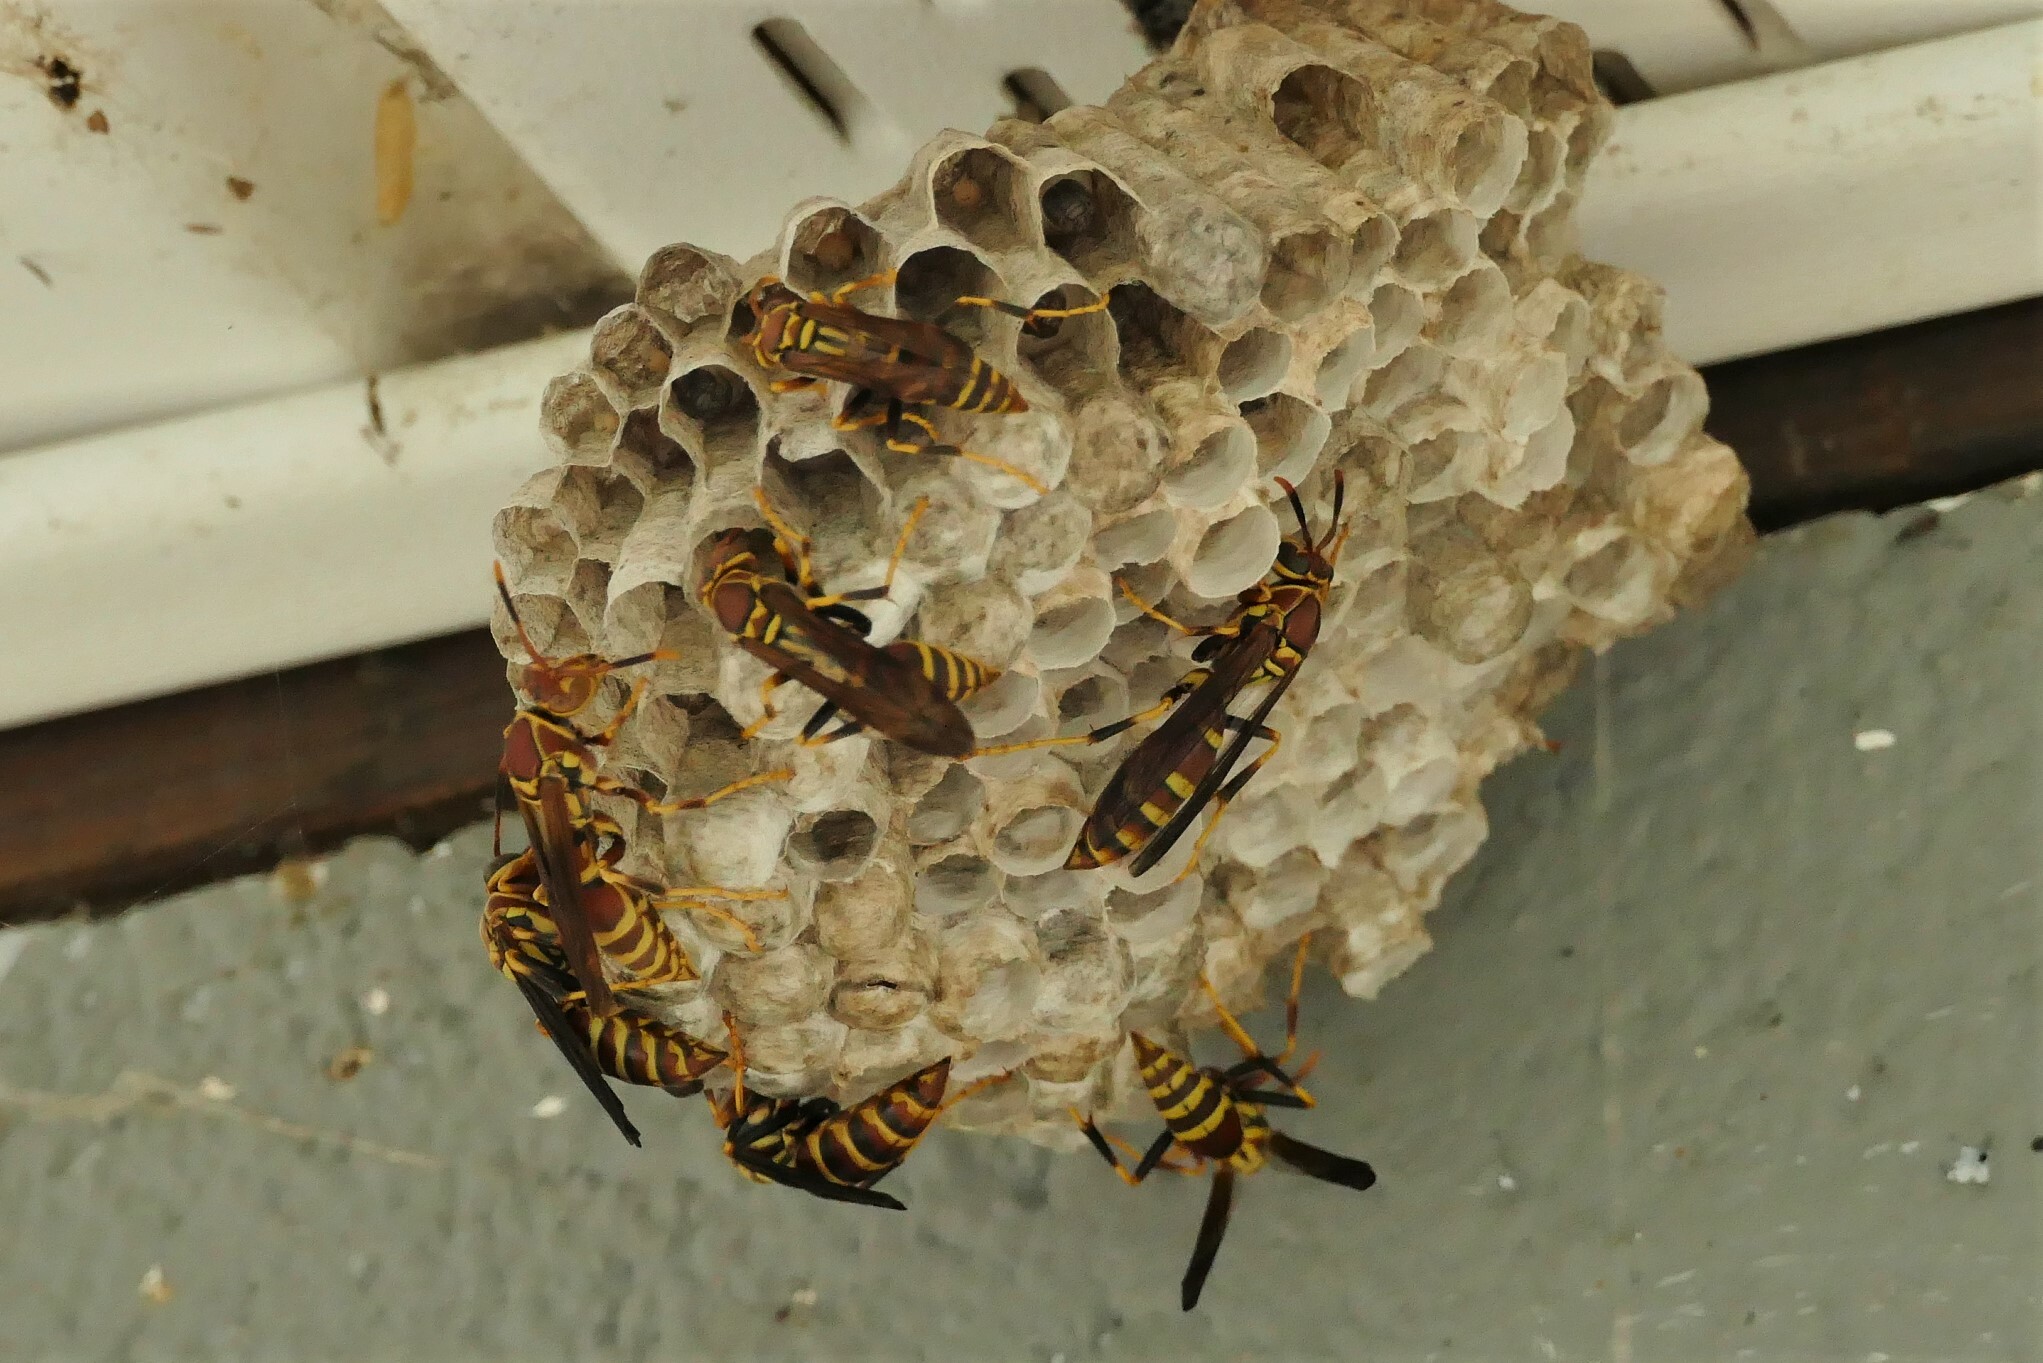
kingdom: Animalia
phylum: Arthropoda
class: Insecta
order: Hymenoptera
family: Eumenidae
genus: Polistes
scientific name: Polistes exclamans
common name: Paper wasp
